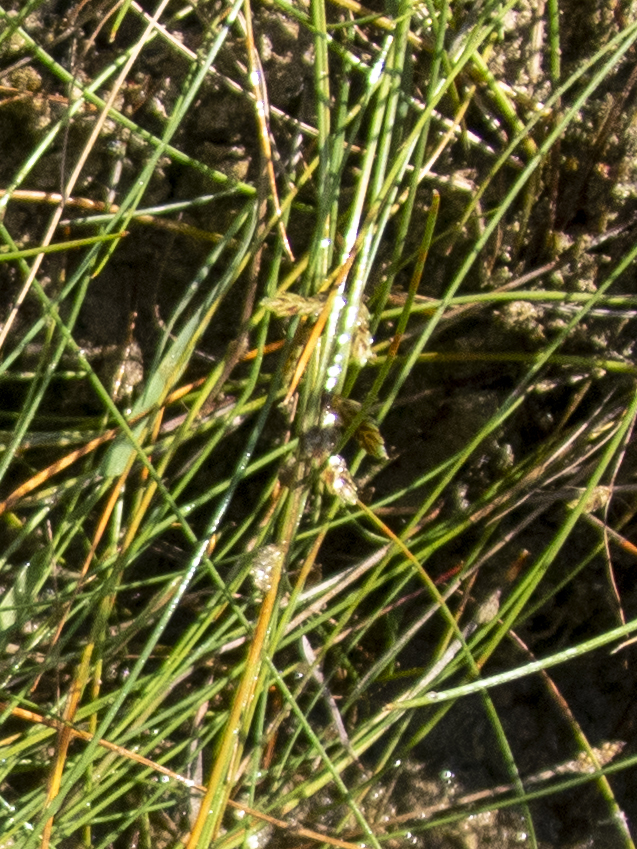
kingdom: Plantae
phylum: Tracheophyta
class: Liliopsida
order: Poales
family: Cyperaceae
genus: Cyperus
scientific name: Cyperus bipartitus
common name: Brook flatsedge
